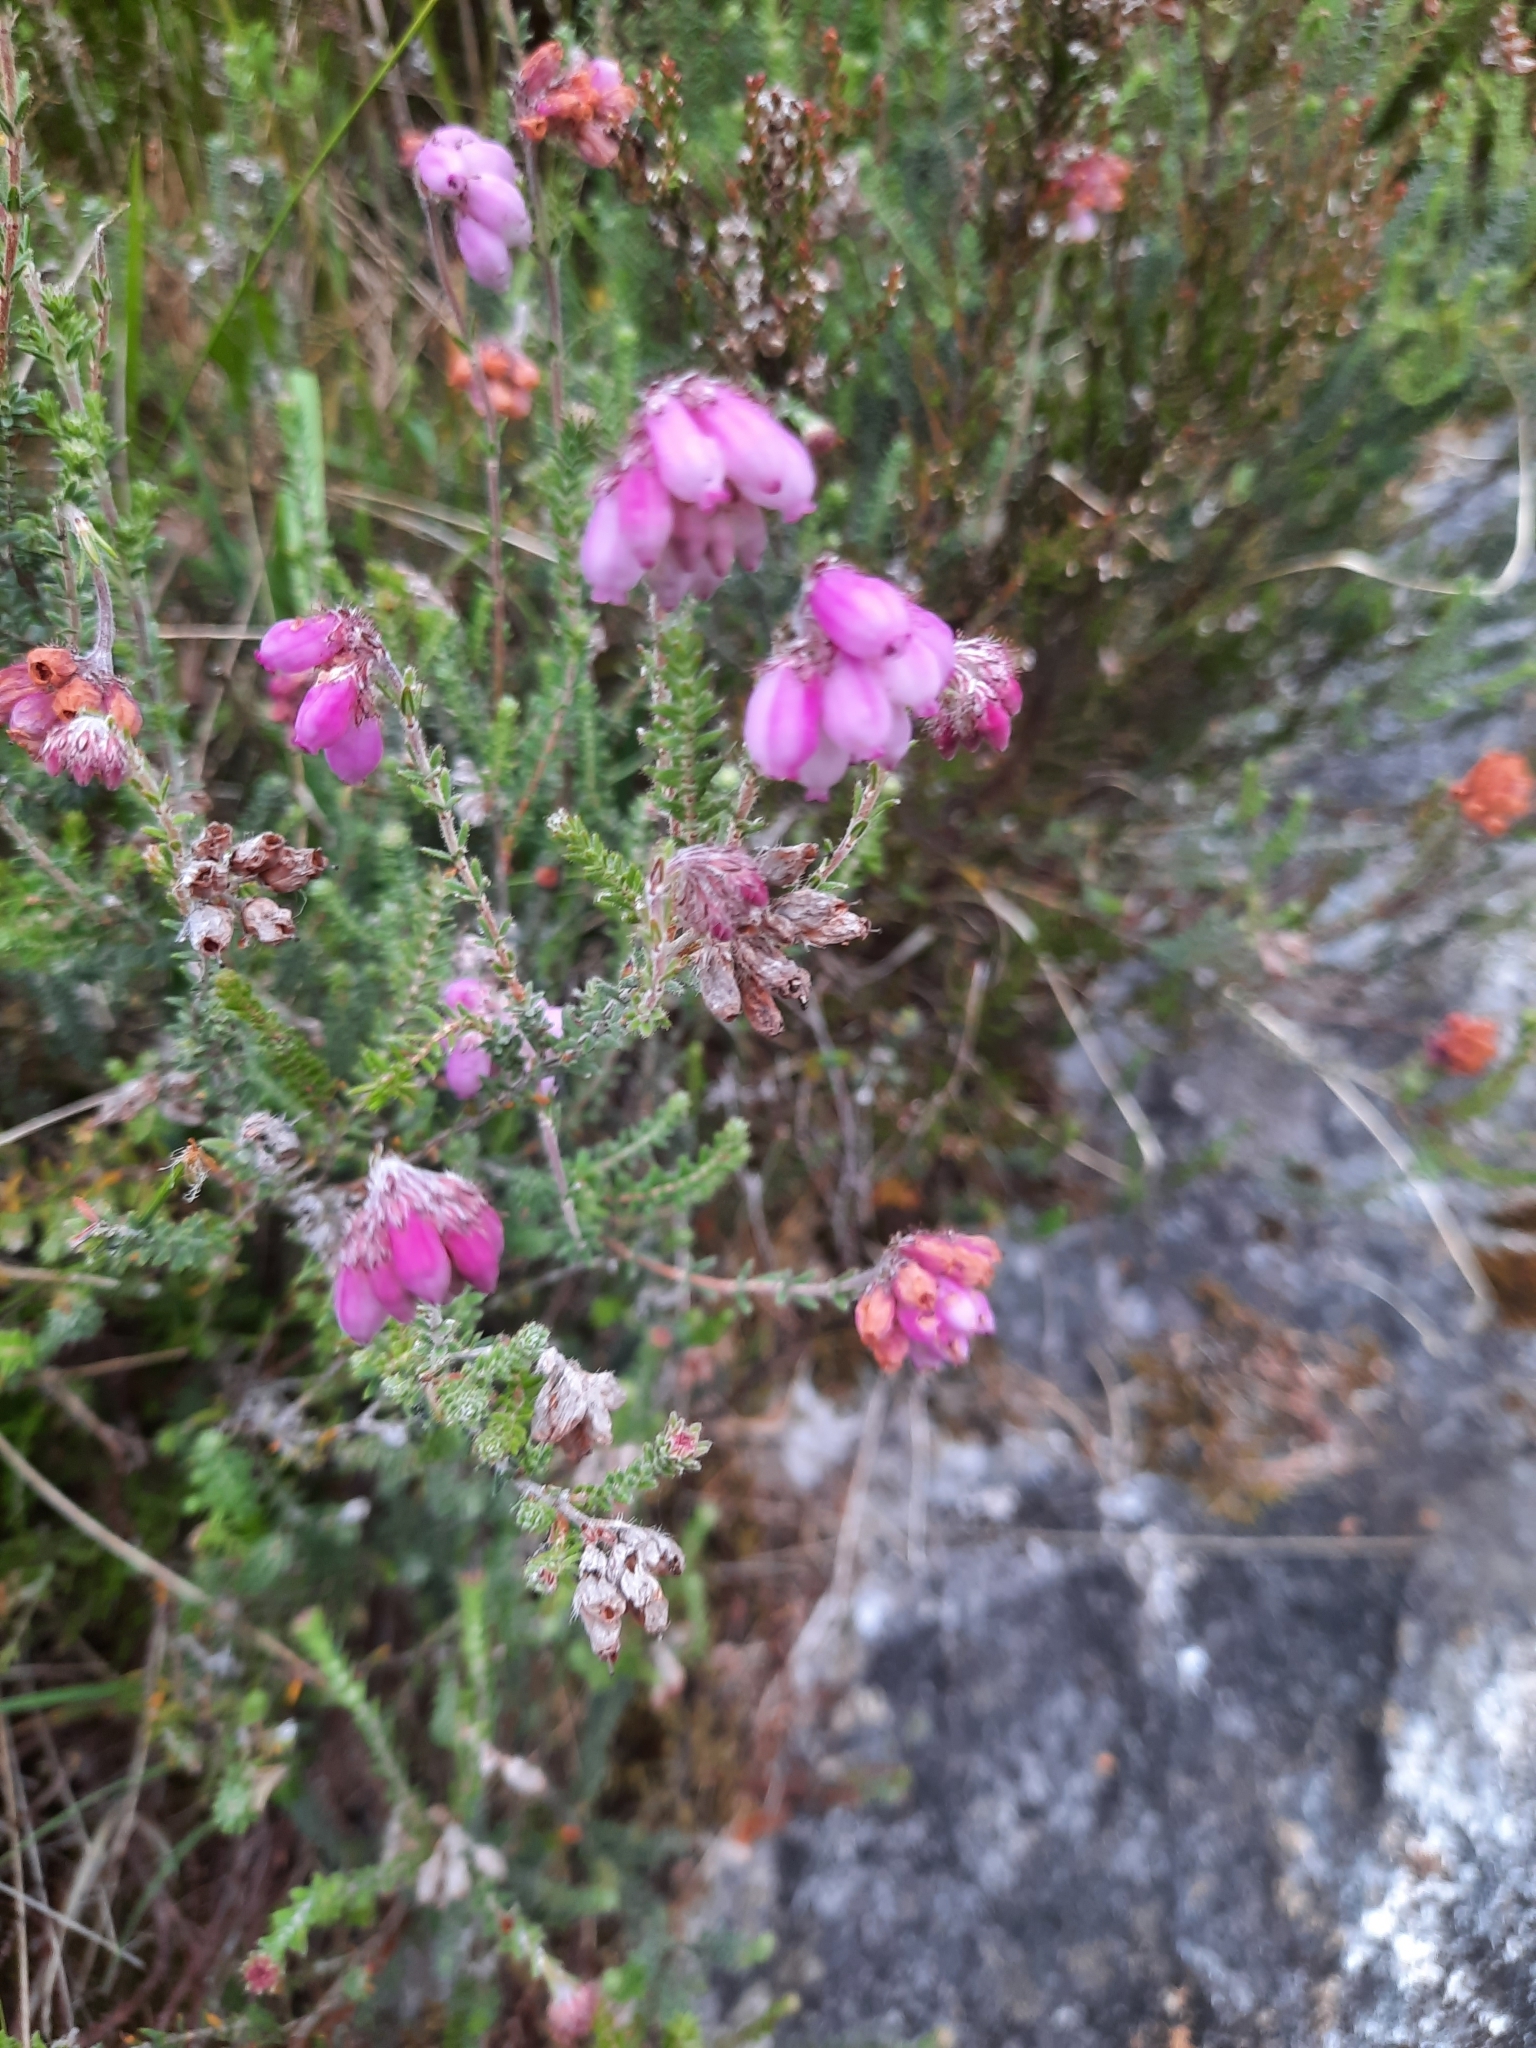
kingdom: Plantae
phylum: Tracheophyta
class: Magnoliopsida
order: Ericales
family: Ericaceae
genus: Erica
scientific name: Erica tetralix
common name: Cross-leaved heath
